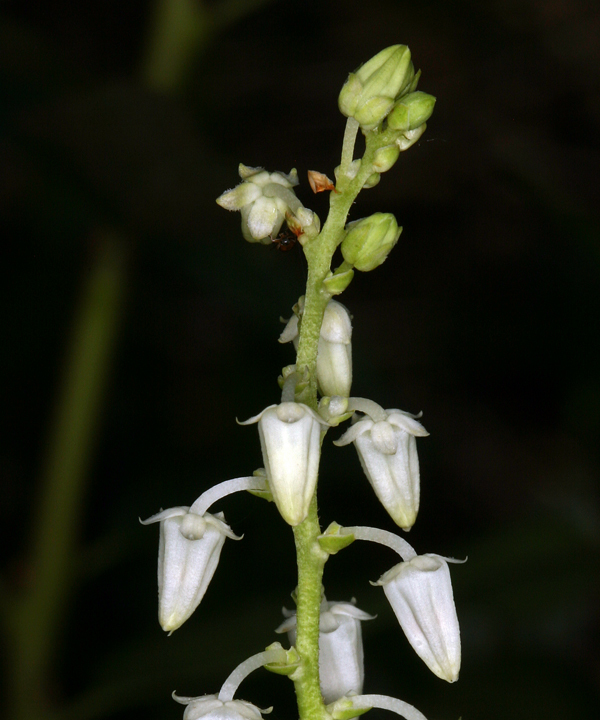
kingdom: Plantae
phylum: Tracheophyta
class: Magnoliopsida
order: Ericales
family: Ericaceae
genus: Leucothoe
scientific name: Leucothoe davisiae
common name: Sierra-laurel
